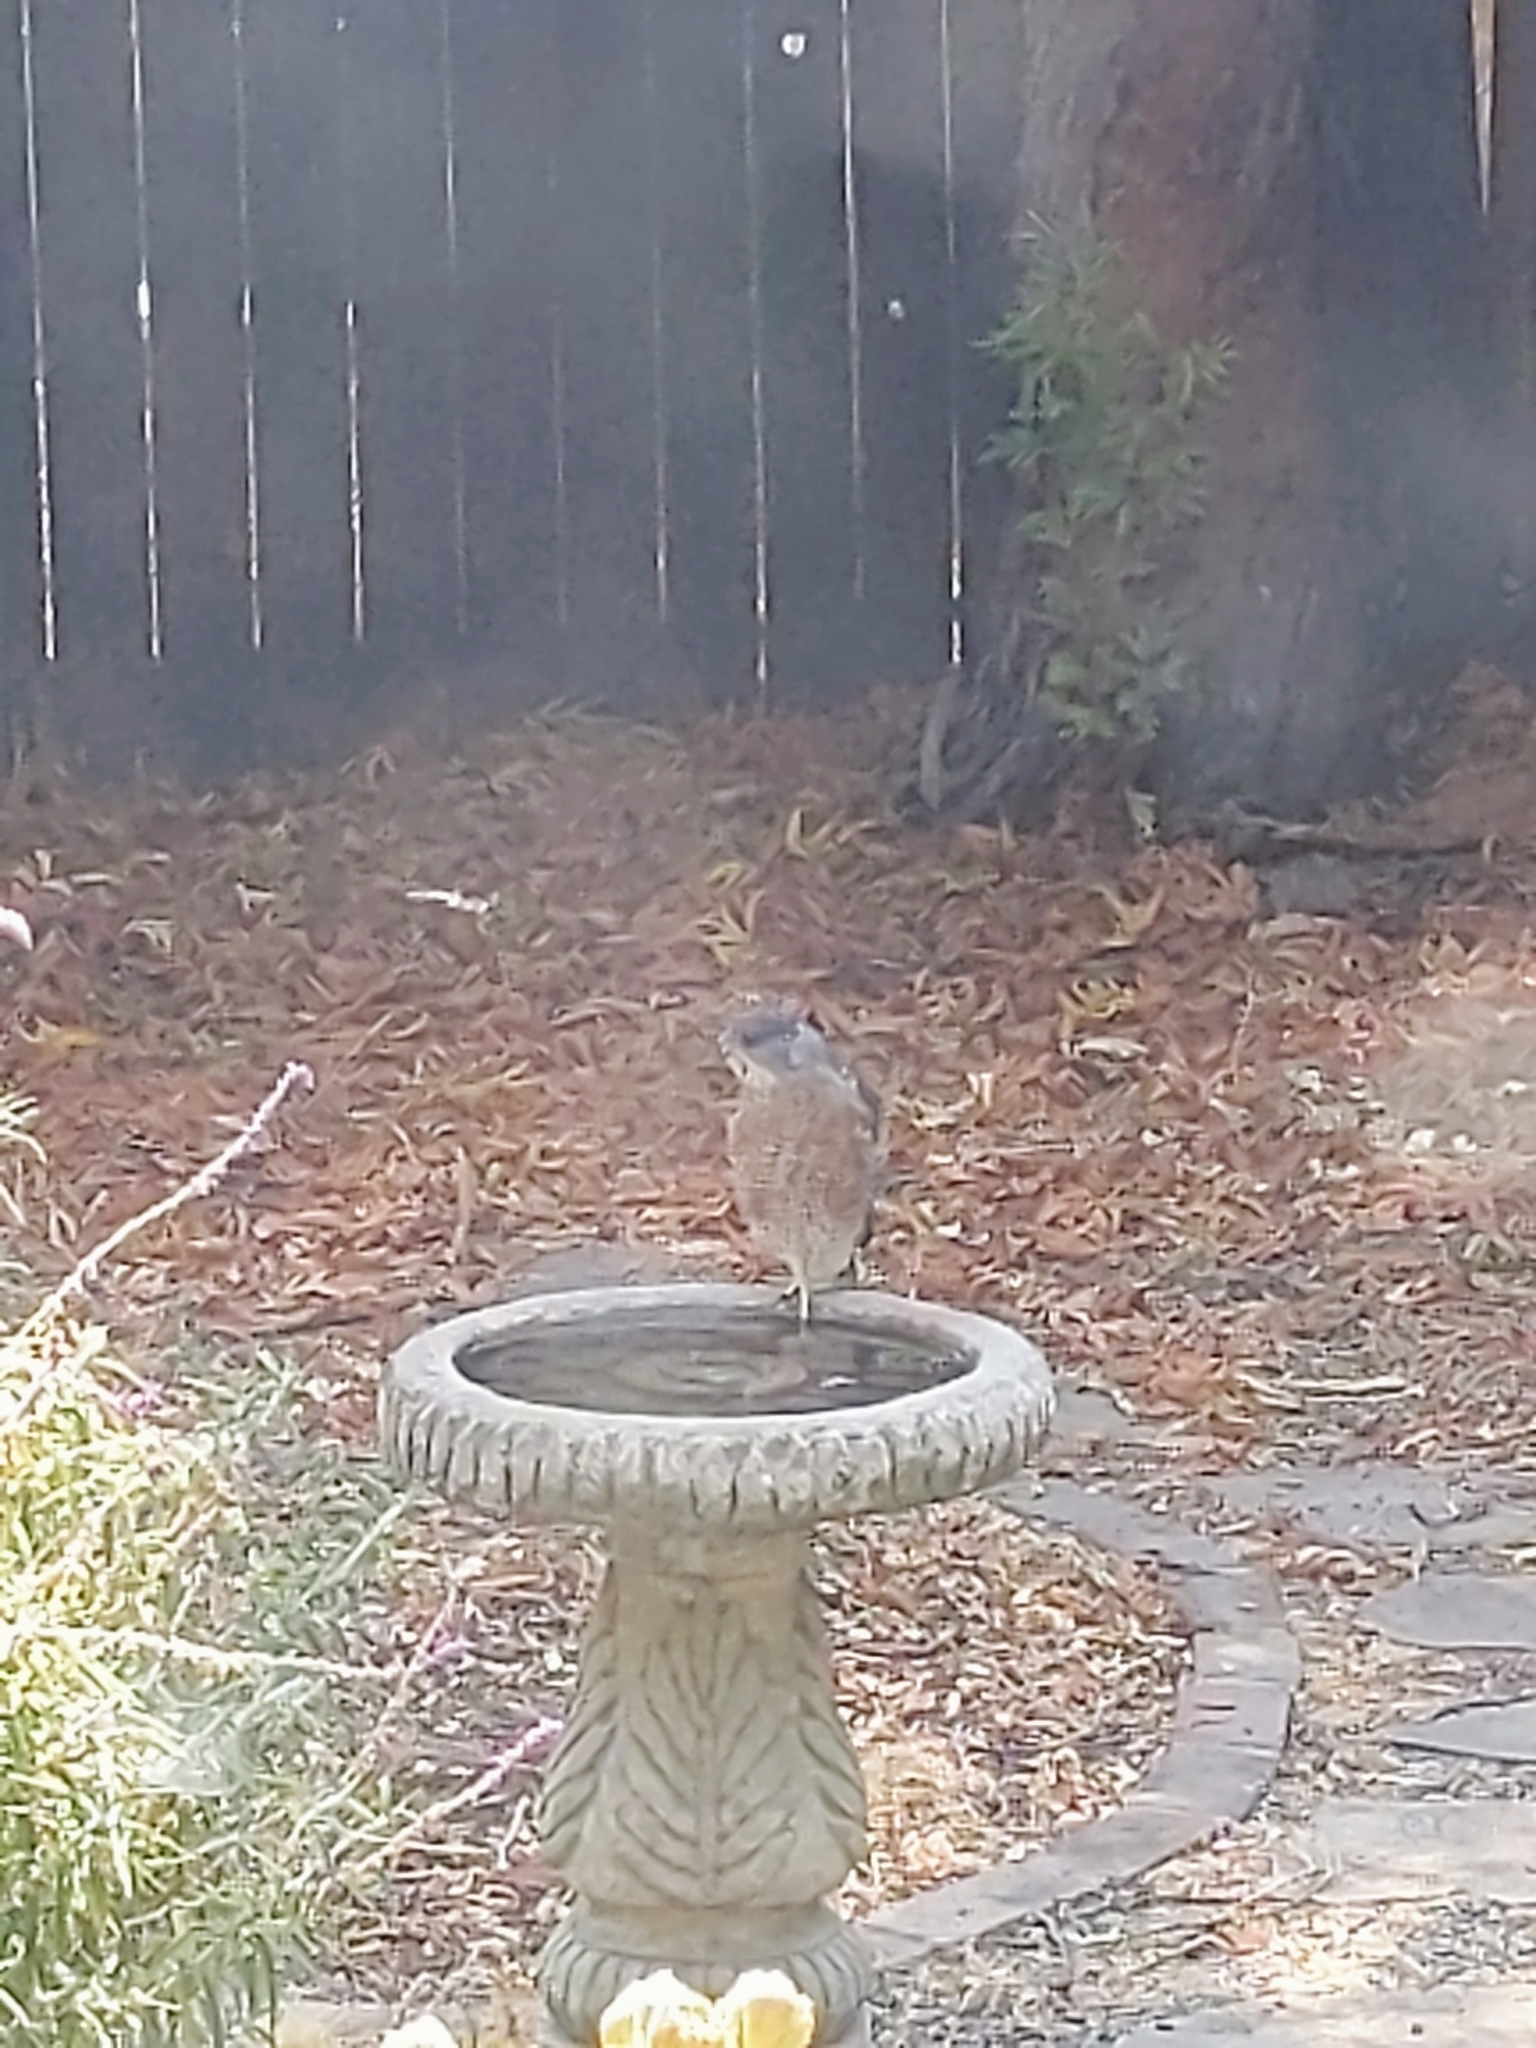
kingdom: Animalia
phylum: Chordata
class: Aves
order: Accipitriformes
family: Accipitridae
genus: Accipiter
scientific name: Accipiter cooperii
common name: Cooper's hawk
